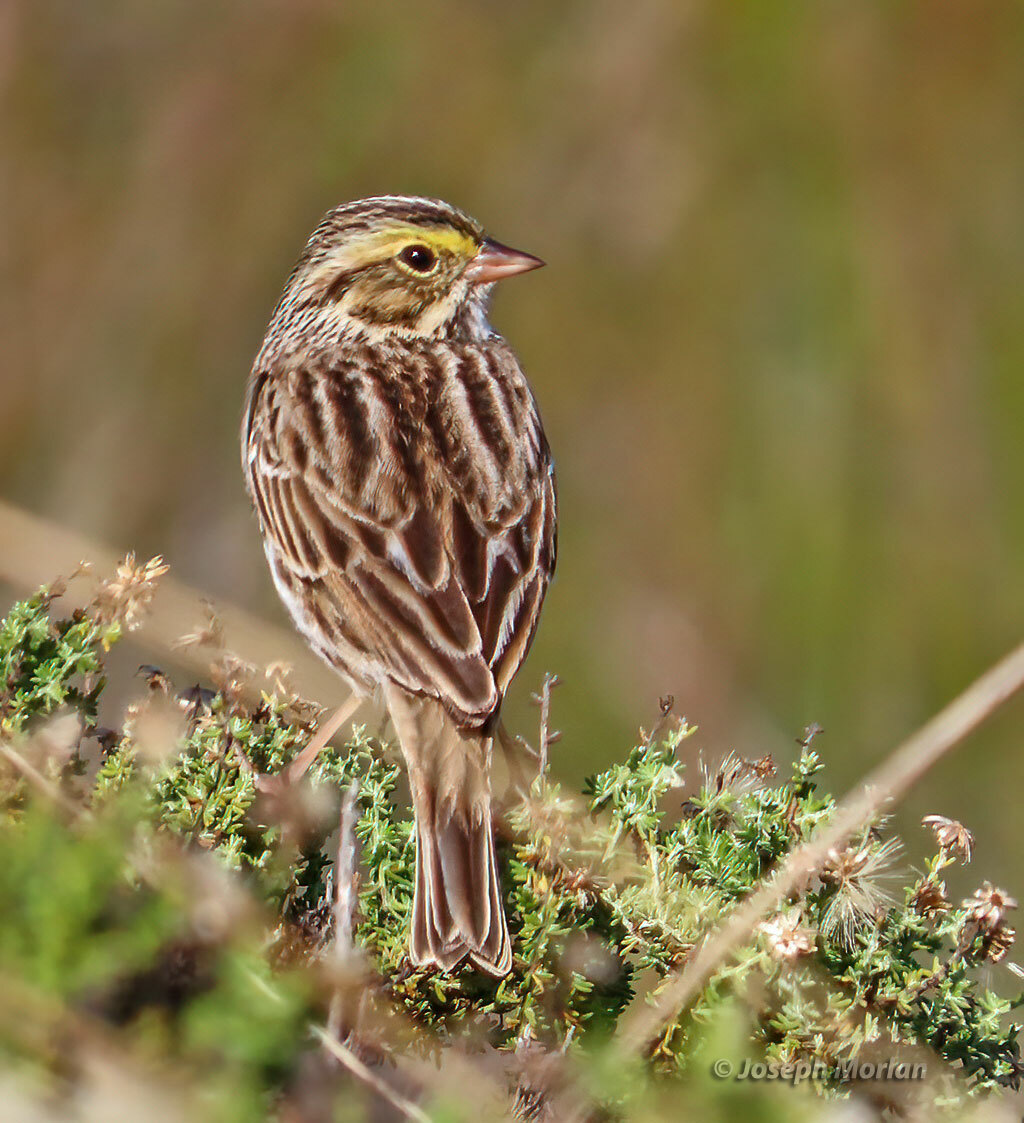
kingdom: Animalia
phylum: Chordata
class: Aves
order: Passeriformes
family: Passerellidae
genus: Passerculus
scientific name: Passerculus sandwichensis
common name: Savannah sparrow
